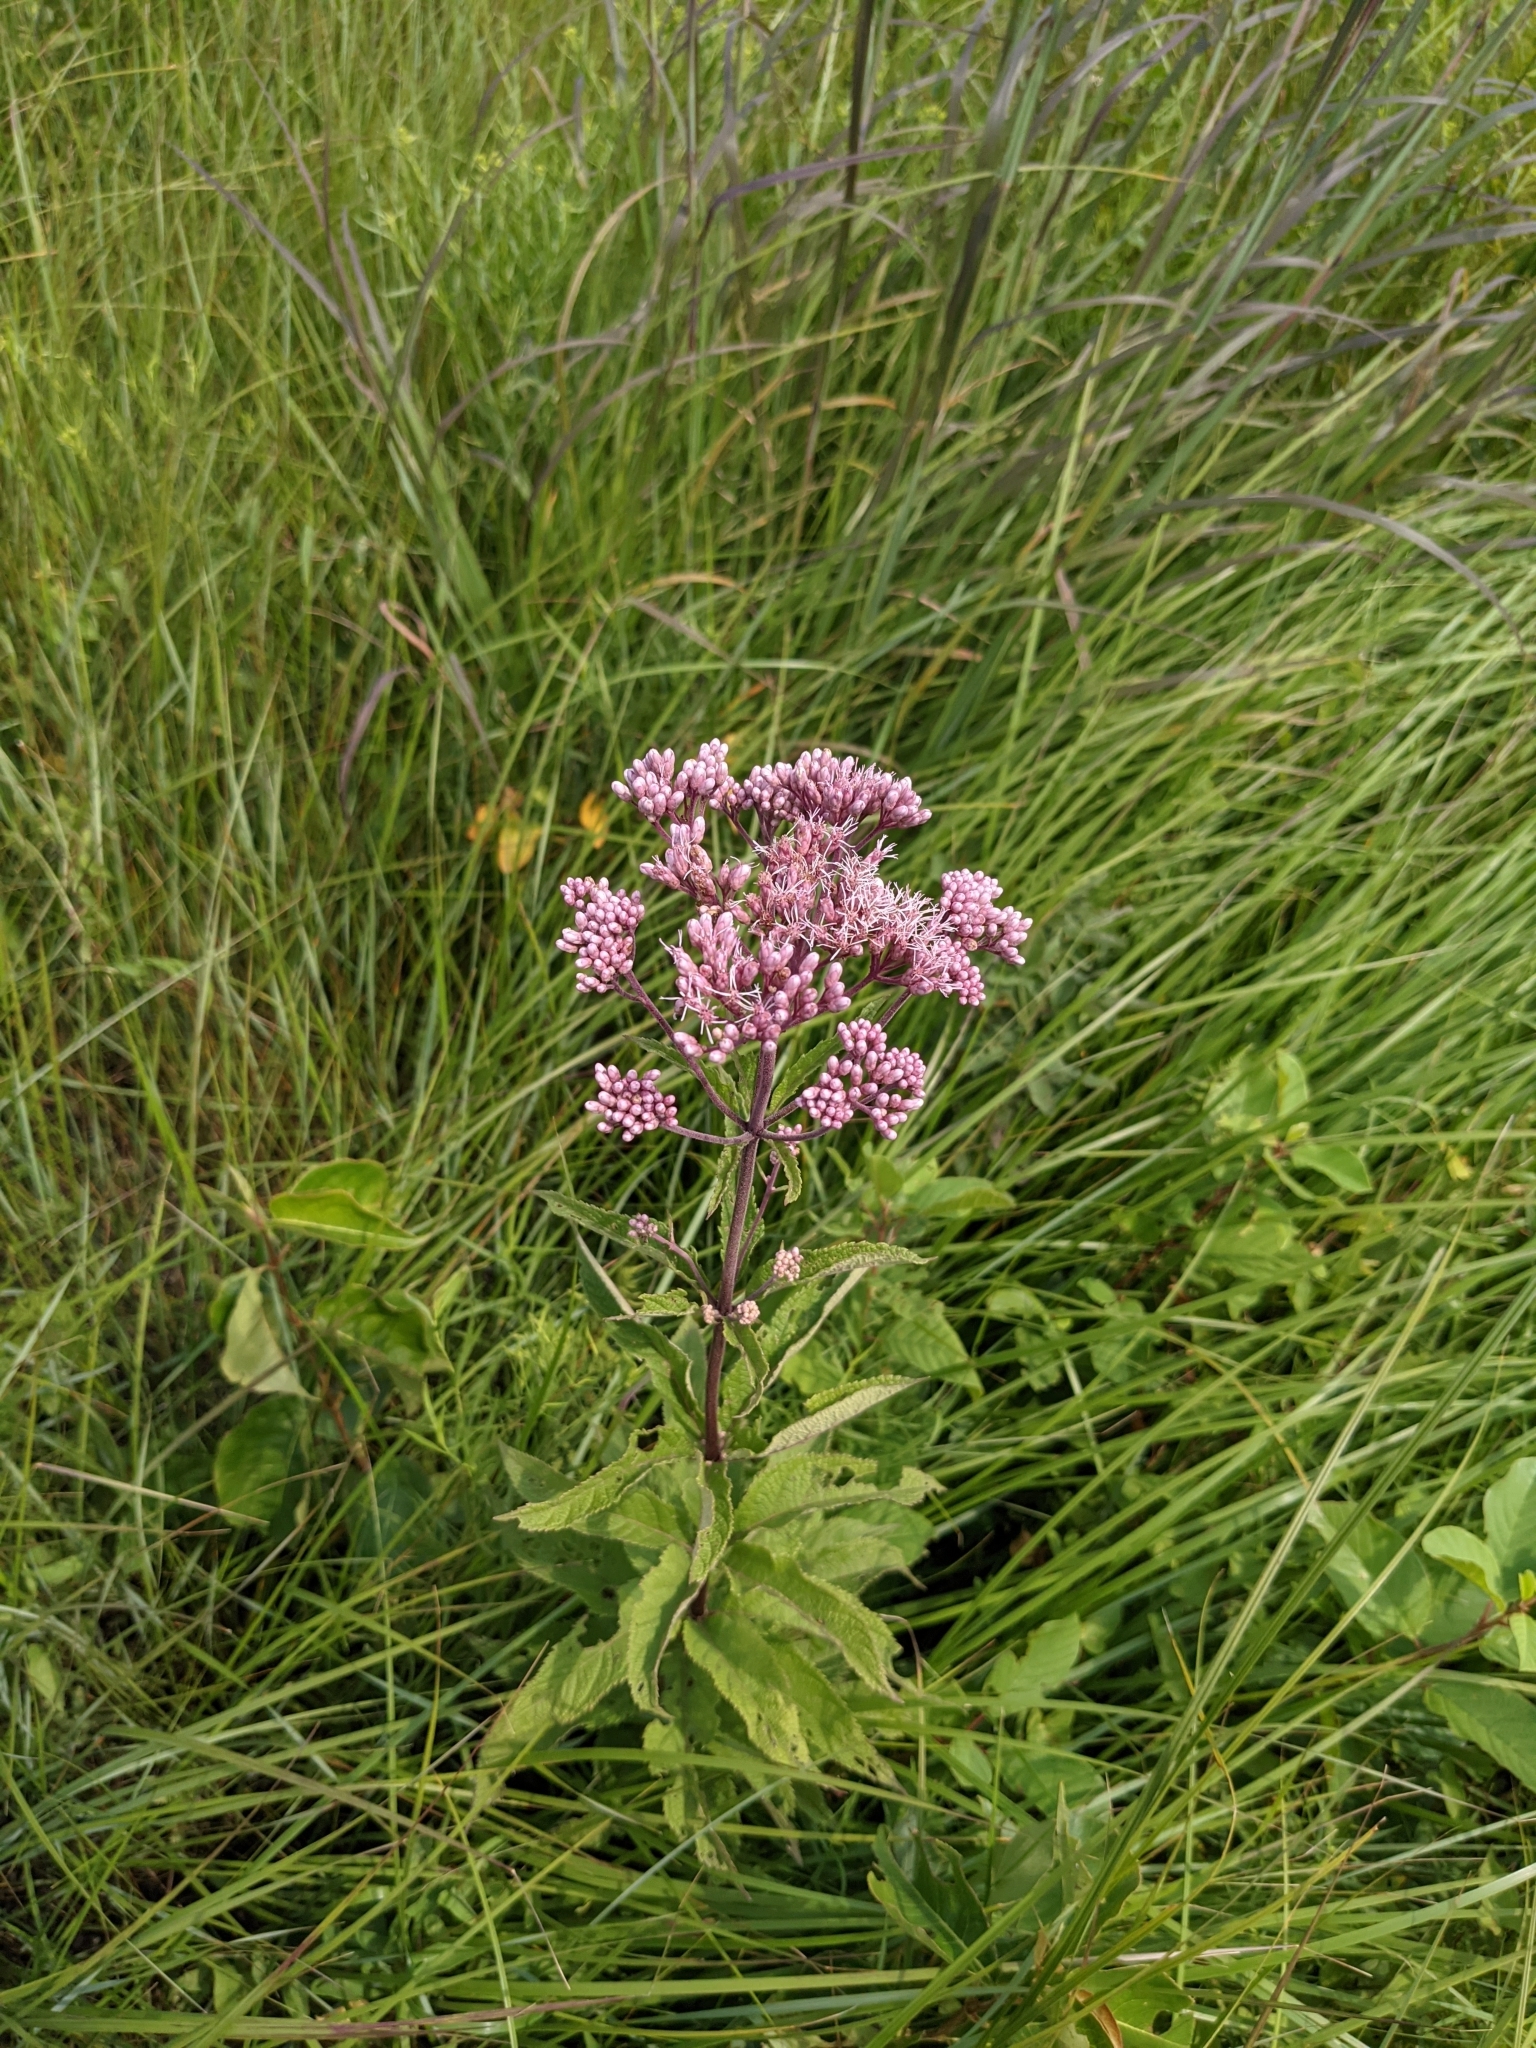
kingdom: Plantae
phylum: Tracheophyta
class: Magnoliopsida
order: Asterales
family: Asteraceae
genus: Eutrochium
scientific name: Eutrochium maculatum
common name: Spotted joe pye weed
